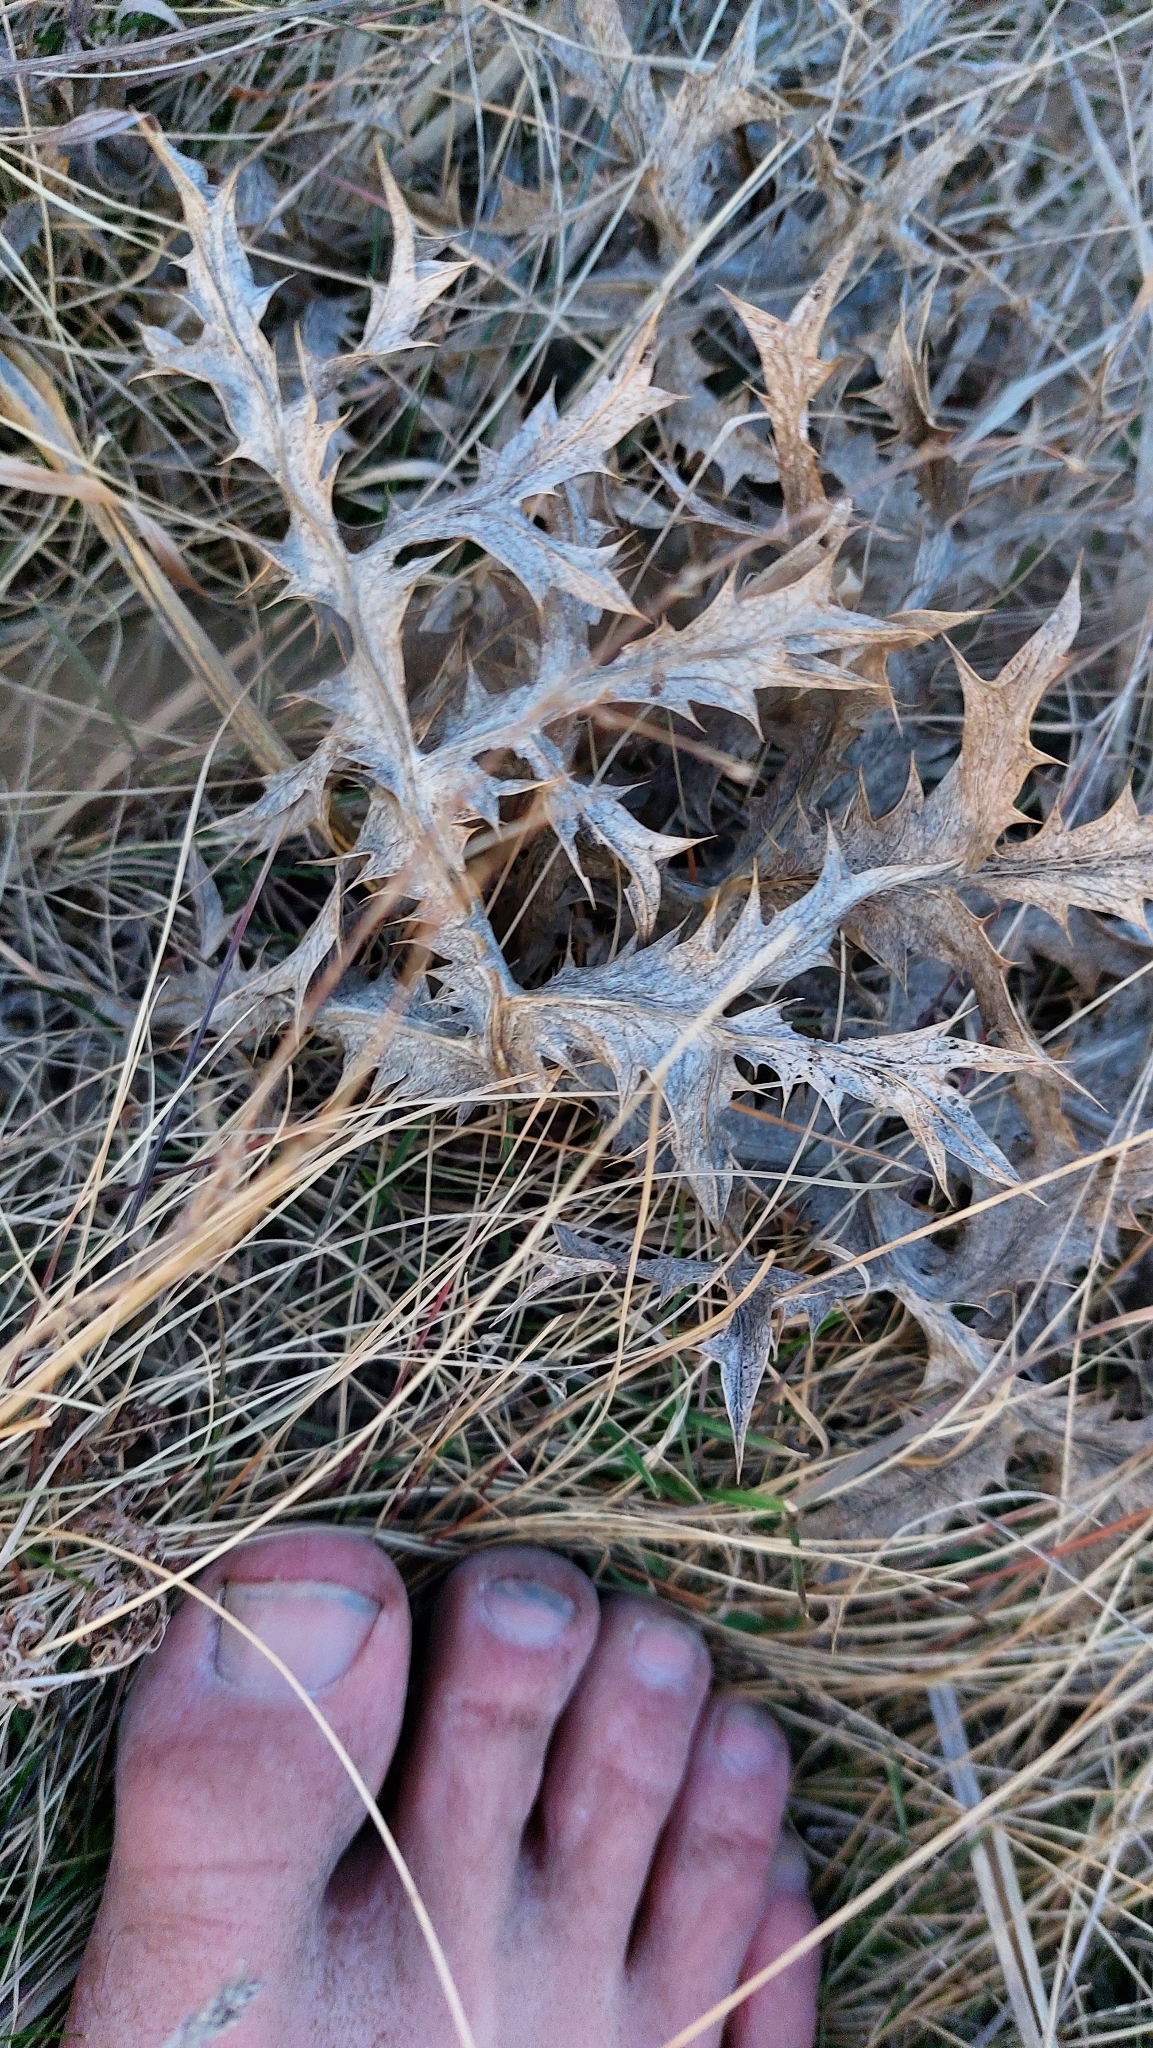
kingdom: Plantae
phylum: Tracheophyta
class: Magnoliopsida
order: Apiales
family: Apiaceae
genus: Eryngium
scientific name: Eryngium campestre
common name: Field eryngo
